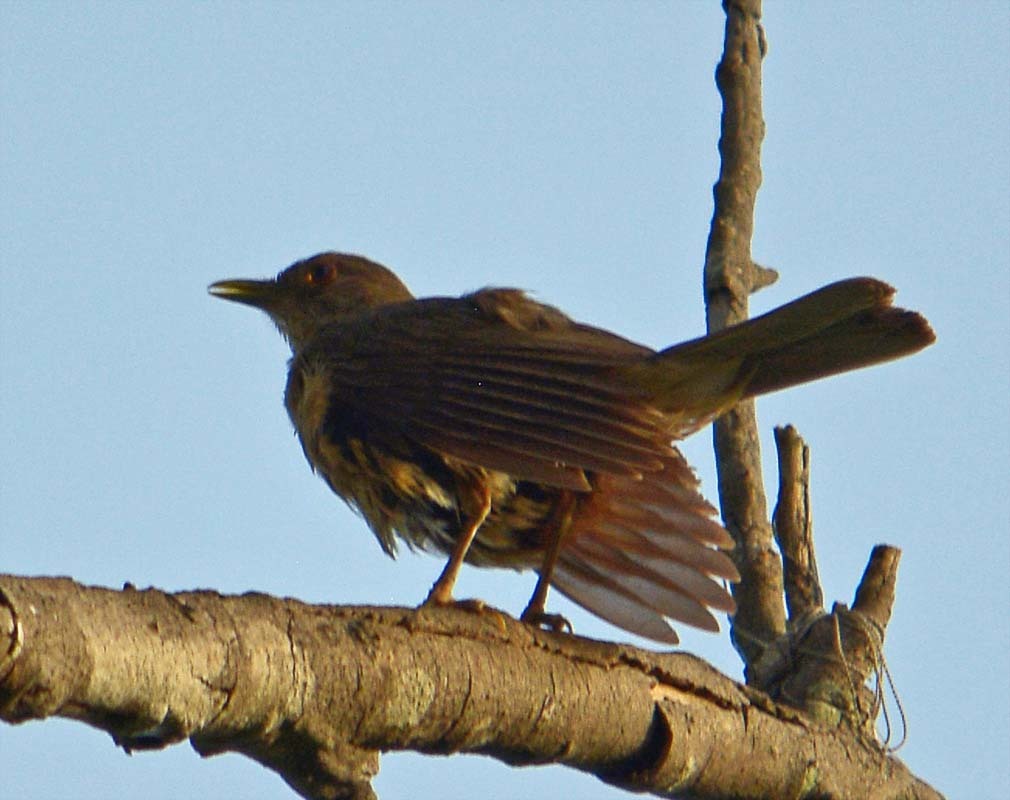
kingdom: Animalia
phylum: Chordata
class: Aves
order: Passeriformes
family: Turdidae
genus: Turdus
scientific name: Turdus grayi
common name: Clay-colored thrush
